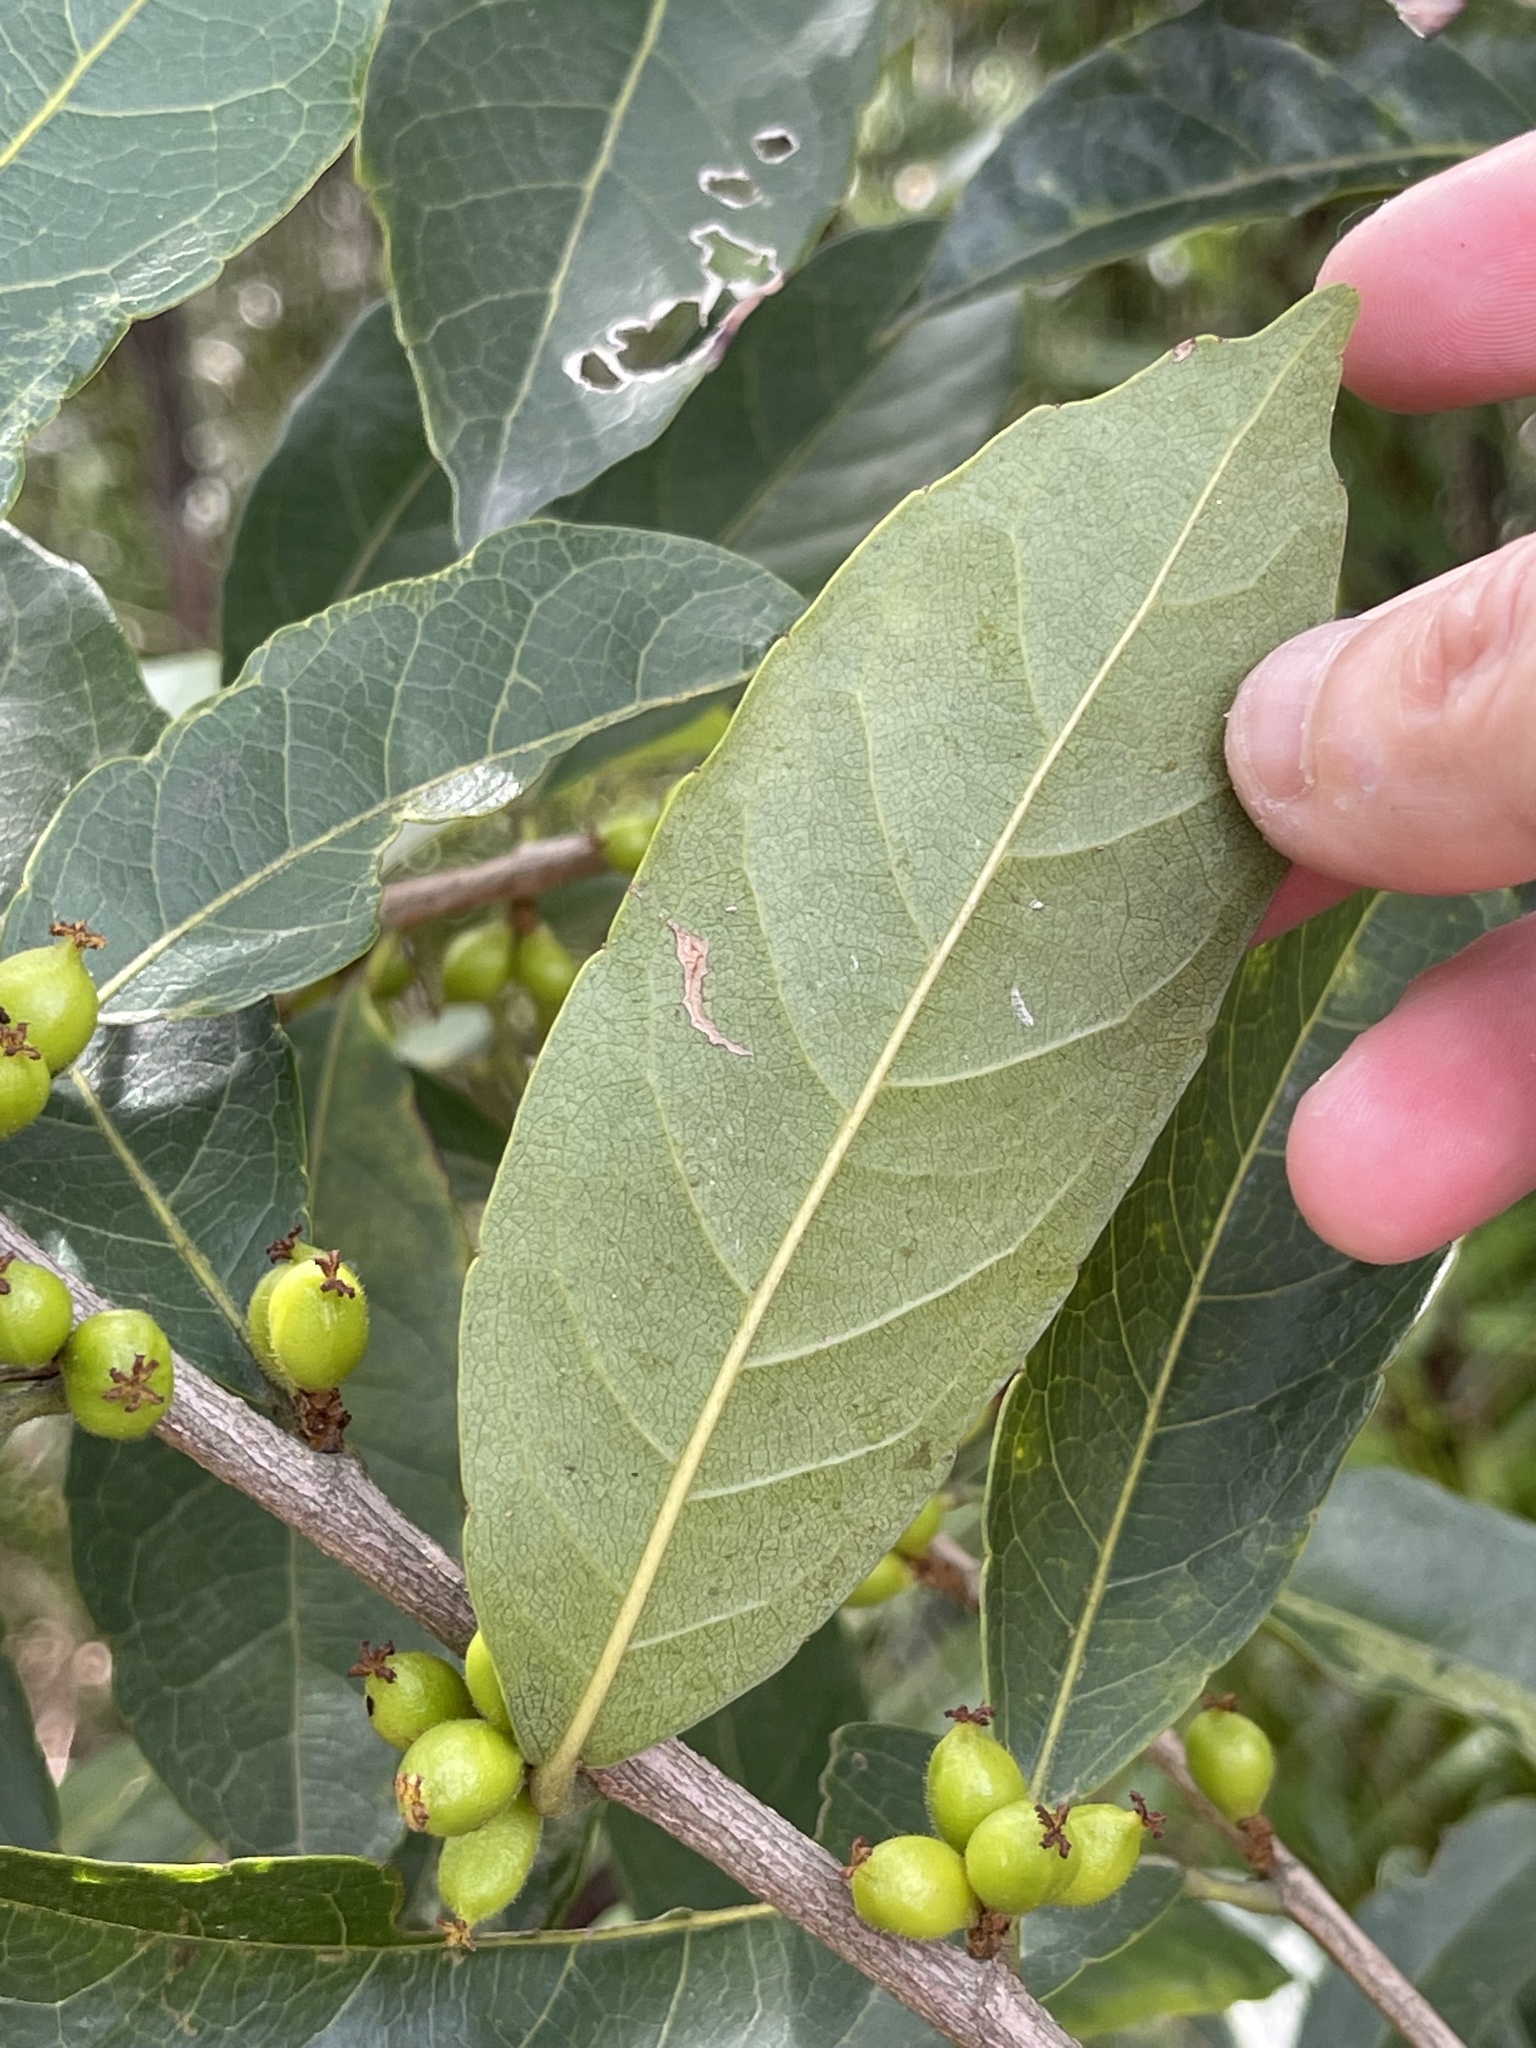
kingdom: Plantae
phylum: Tracheophyta
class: Magnoliopsida
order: Malpighiales
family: Phyllanthaceae
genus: Aporosa
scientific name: Aporosa octandra
